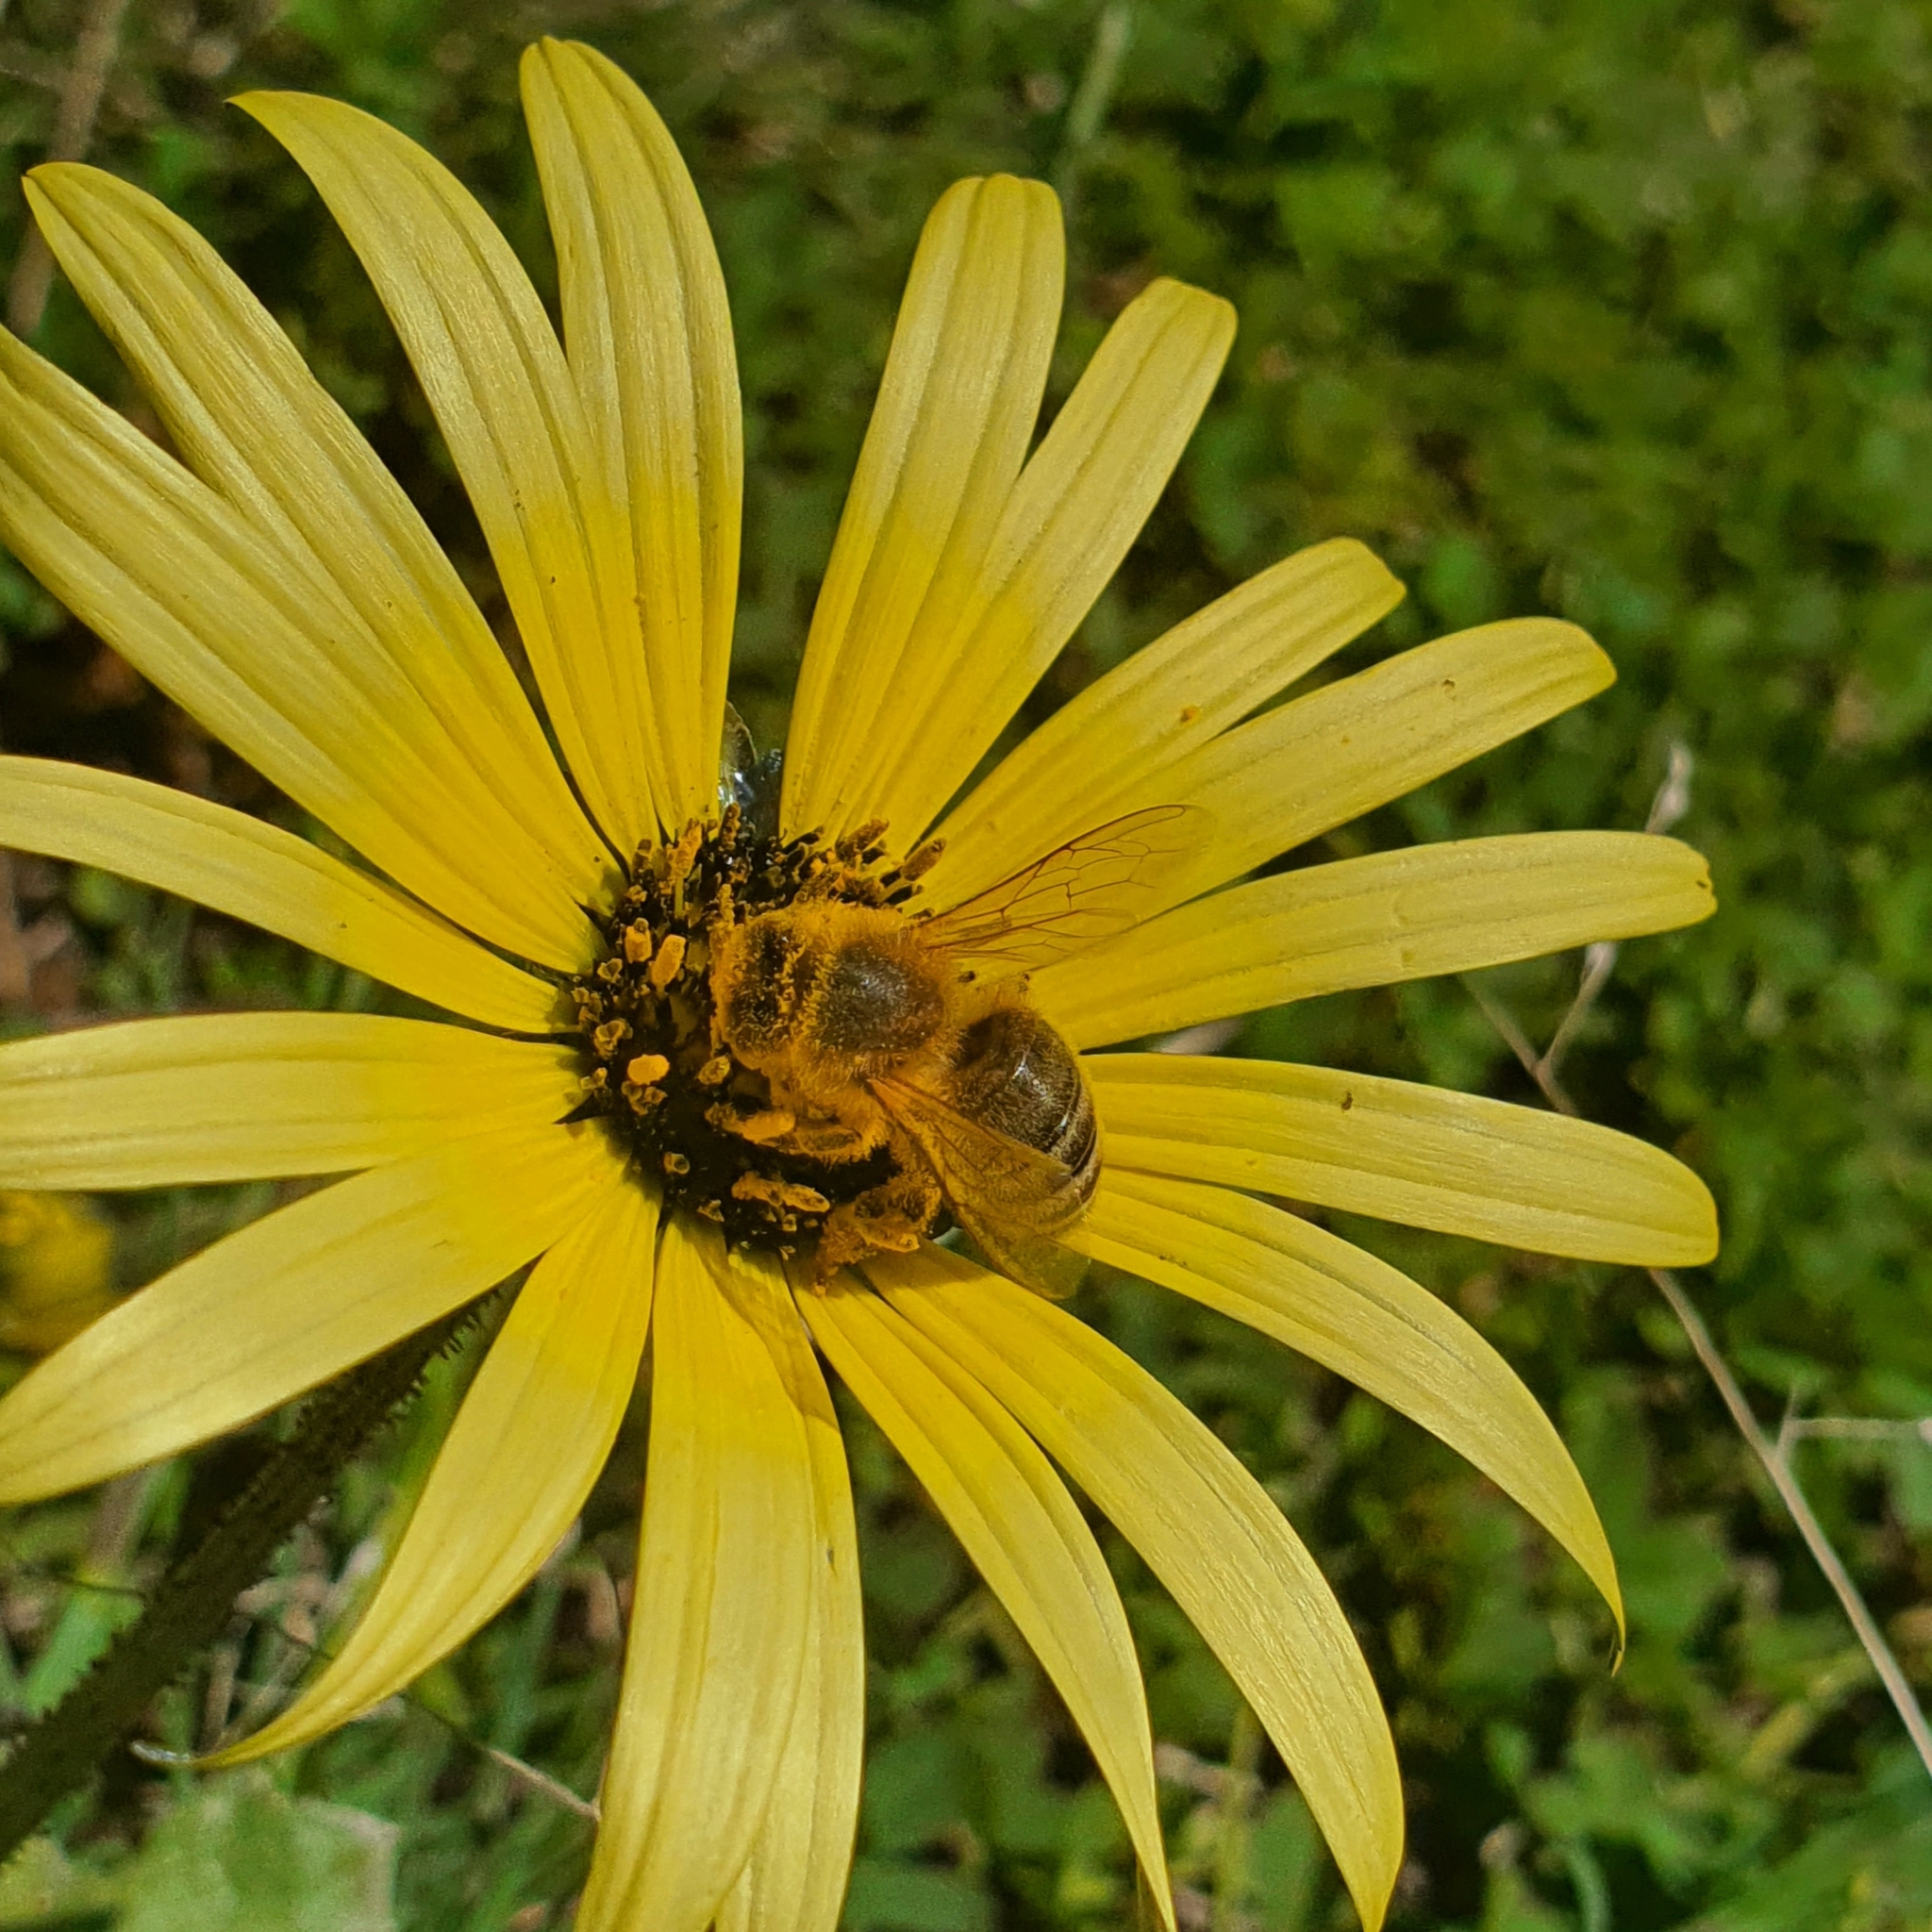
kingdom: Animalia
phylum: Arthropoda
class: Insecta
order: Hymenoptera
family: Apidae
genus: Apis
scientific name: Apis mellifera
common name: Honey bee
